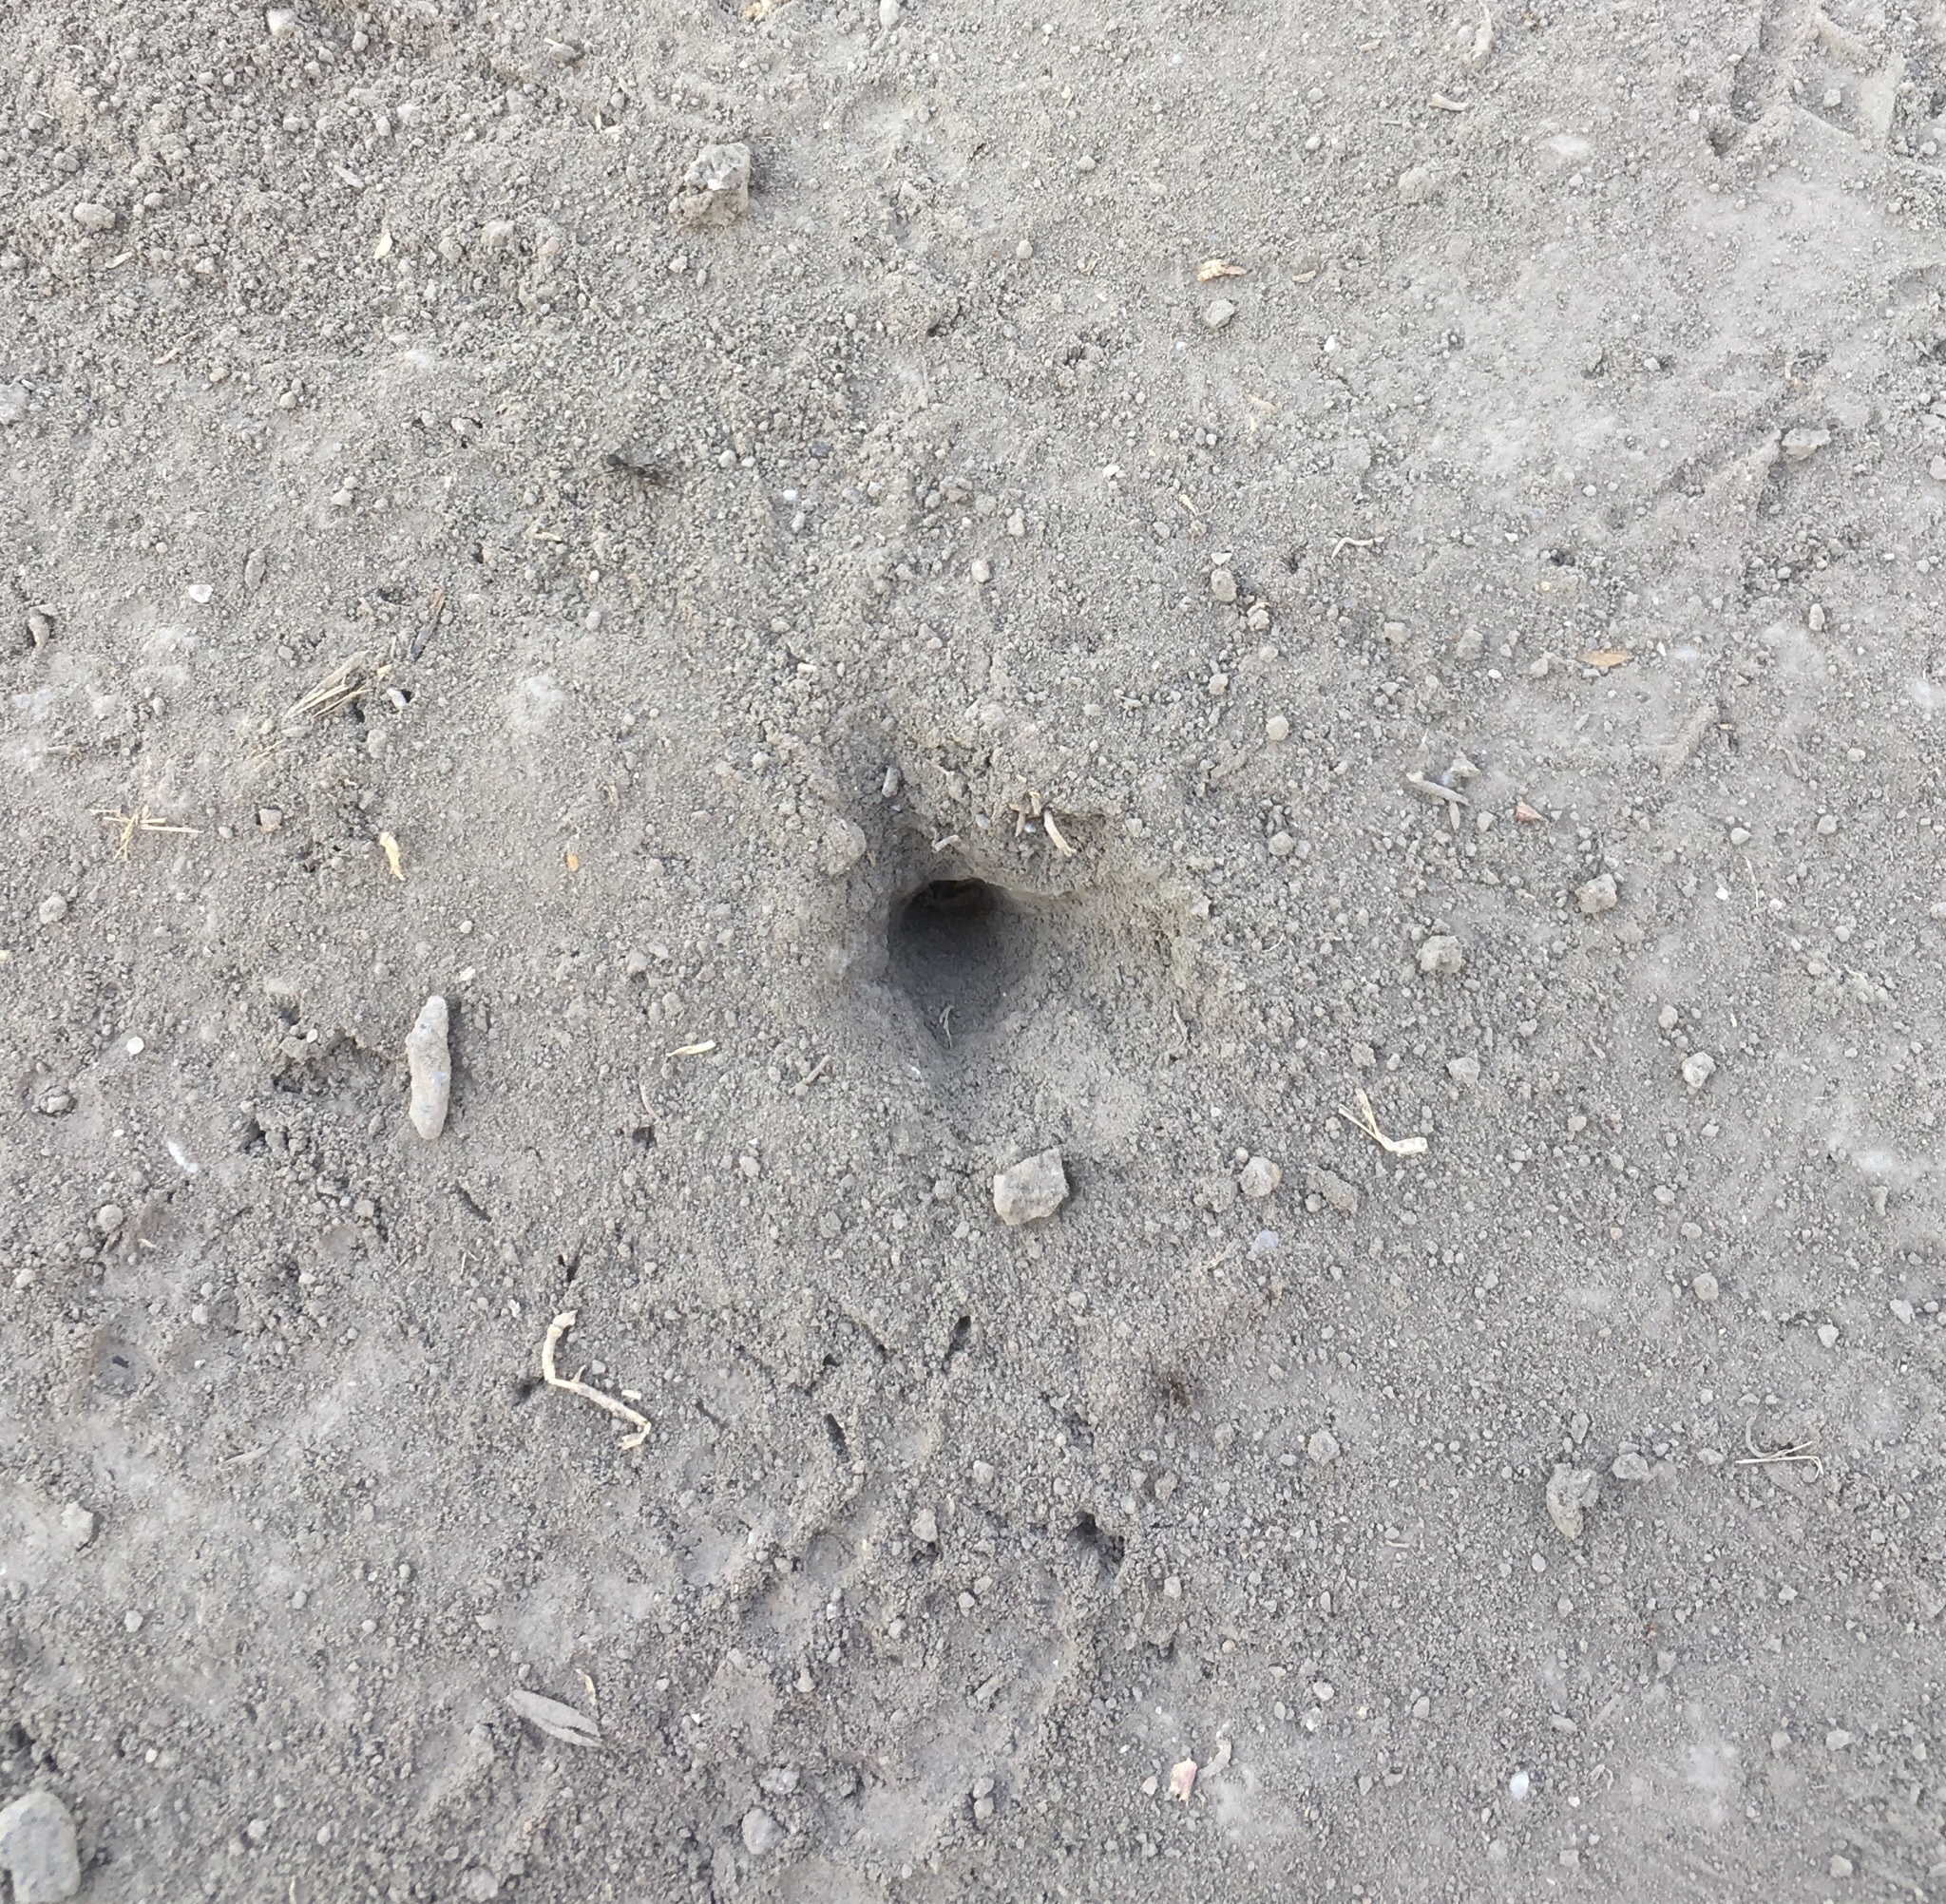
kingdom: Animalia
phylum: Chordata
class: Aves
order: Piciformes
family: Picidae
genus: Colaptes
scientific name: Colaptes melanochloros
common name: Green-barred woodpecker
